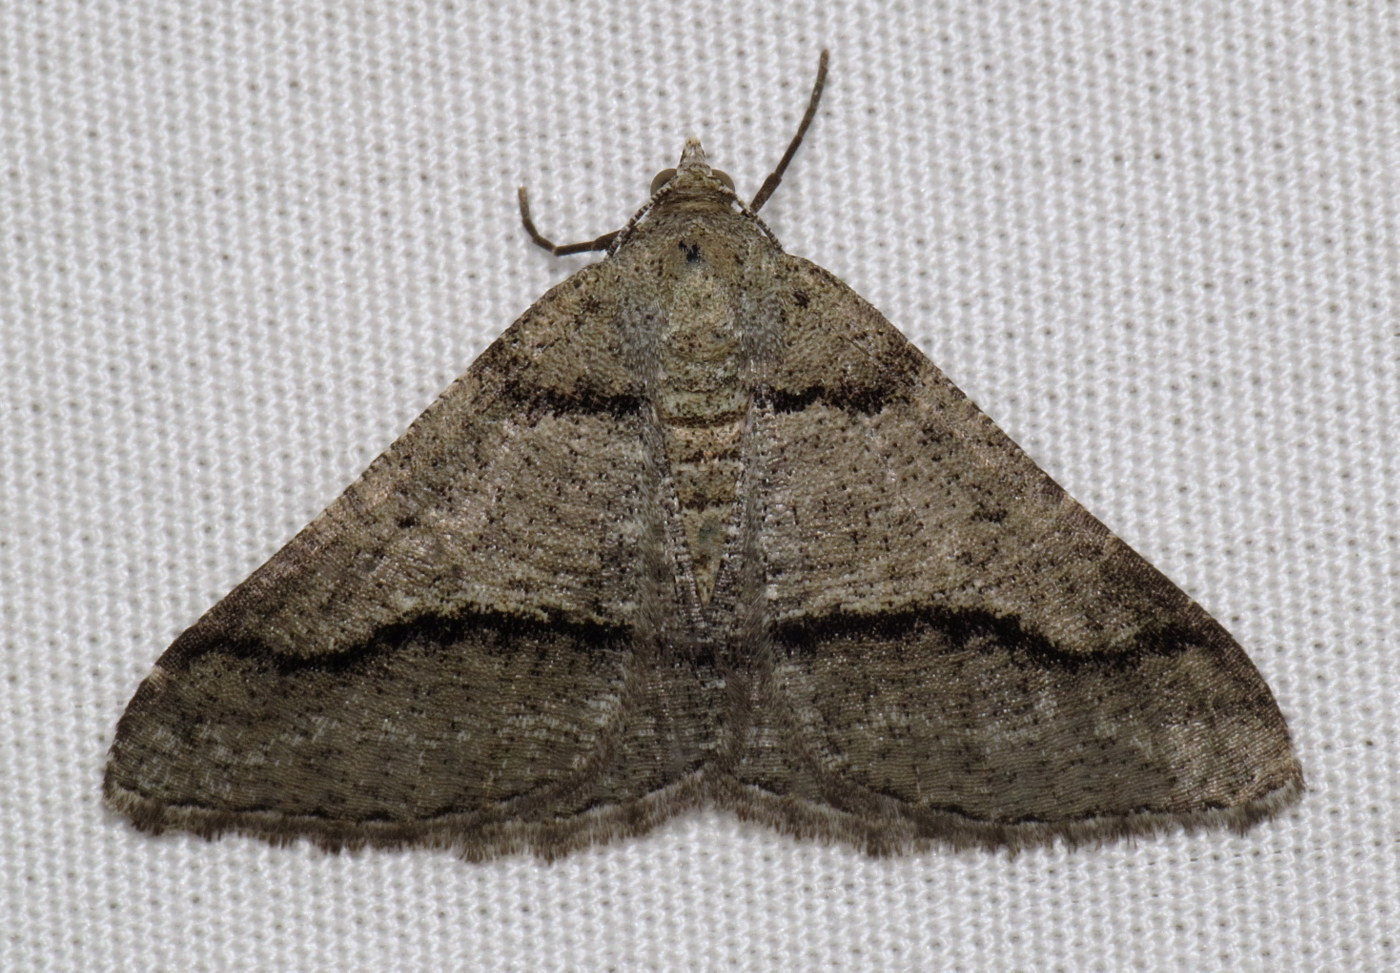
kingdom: Animalia
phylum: Arthropoda
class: Insecta
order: Lepidoptera
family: Geometridae
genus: Digrammia
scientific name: Digrammia continuata
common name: Curve-lined angle
